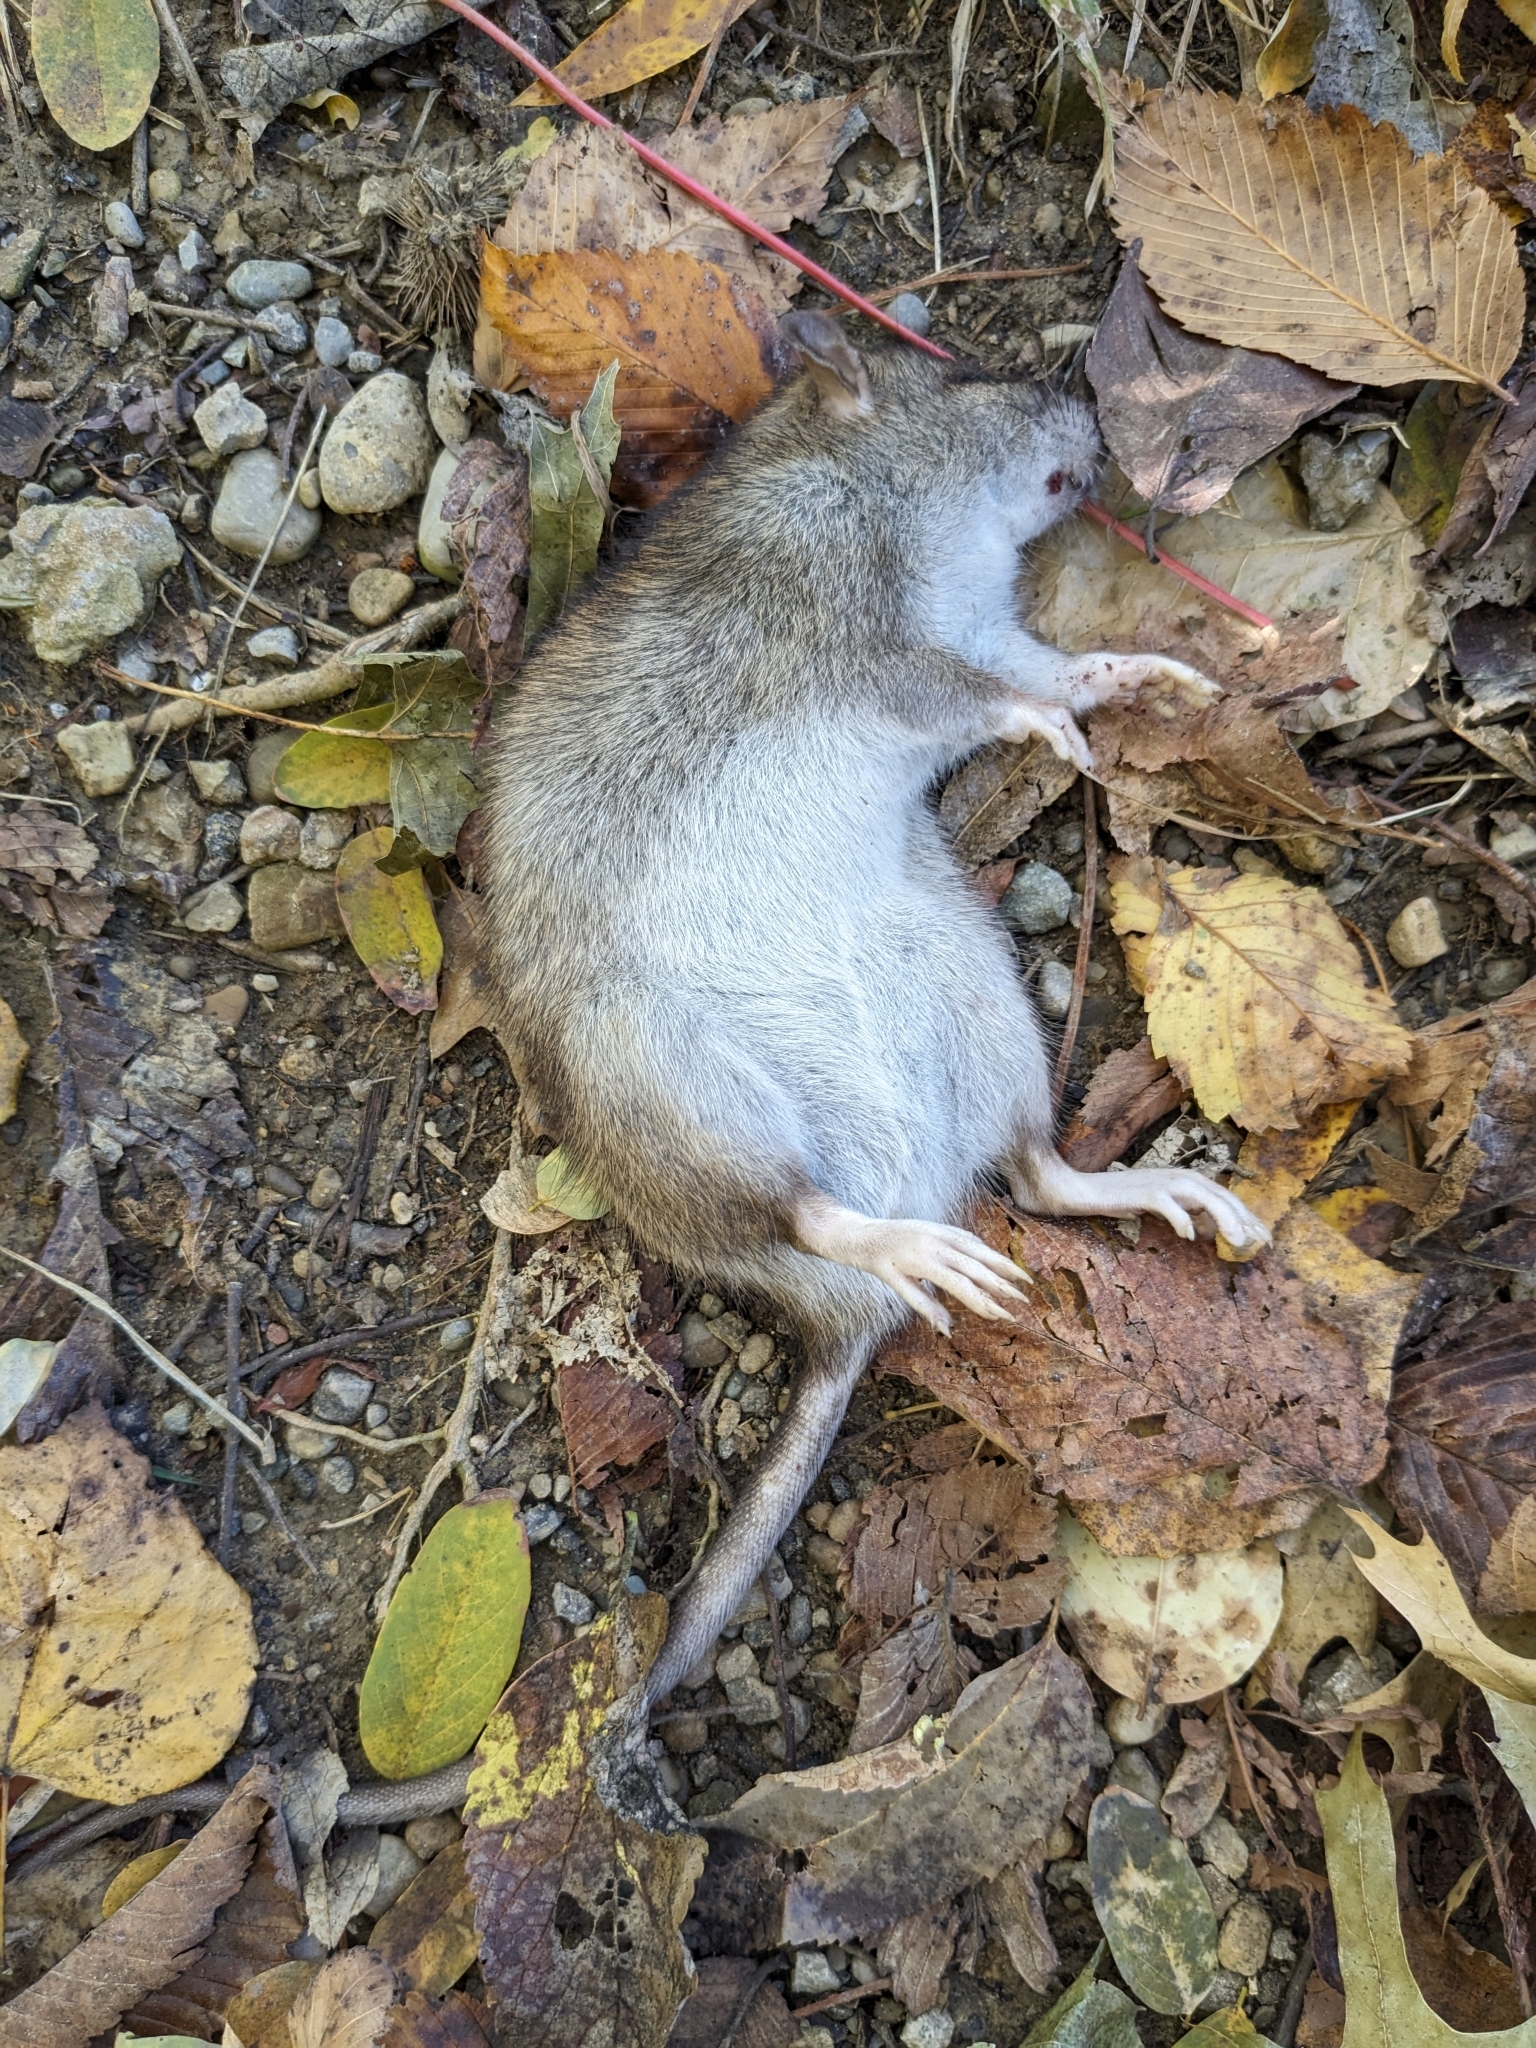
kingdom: Animalia
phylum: Chordata
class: Mammalia
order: Rodentia
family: Muridae
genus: Rattus
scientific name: Rattus norvegicus
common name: Brown rat
